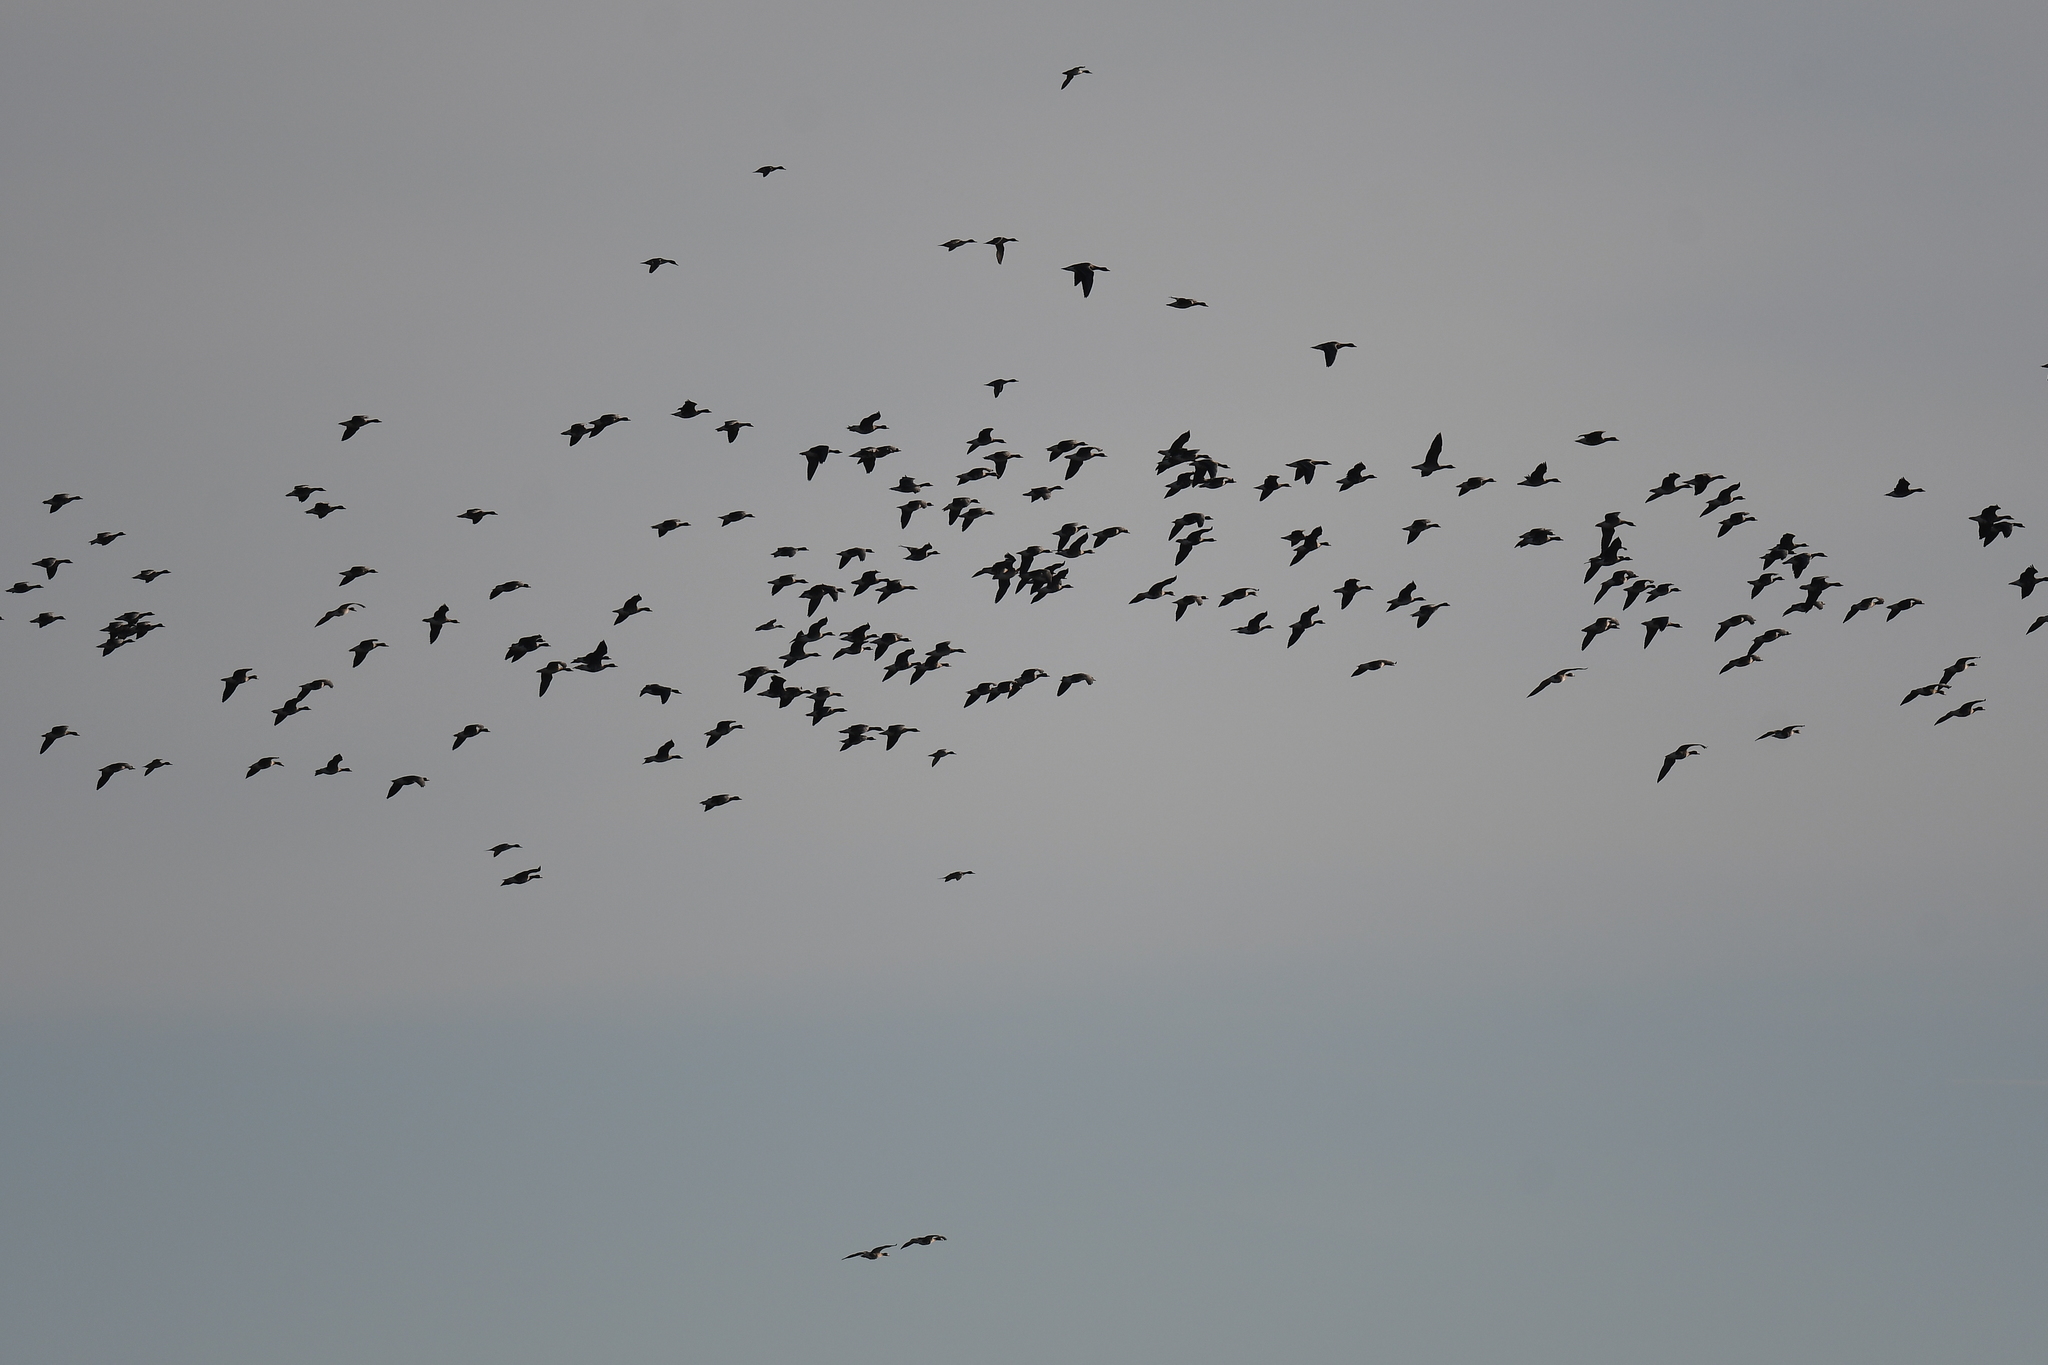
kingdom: Animalia
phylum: Chordata
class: Aves
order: Anseriformes
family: Anatidae
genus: Anser
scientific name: Anser albifrons
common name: Greater white-fronted goose
